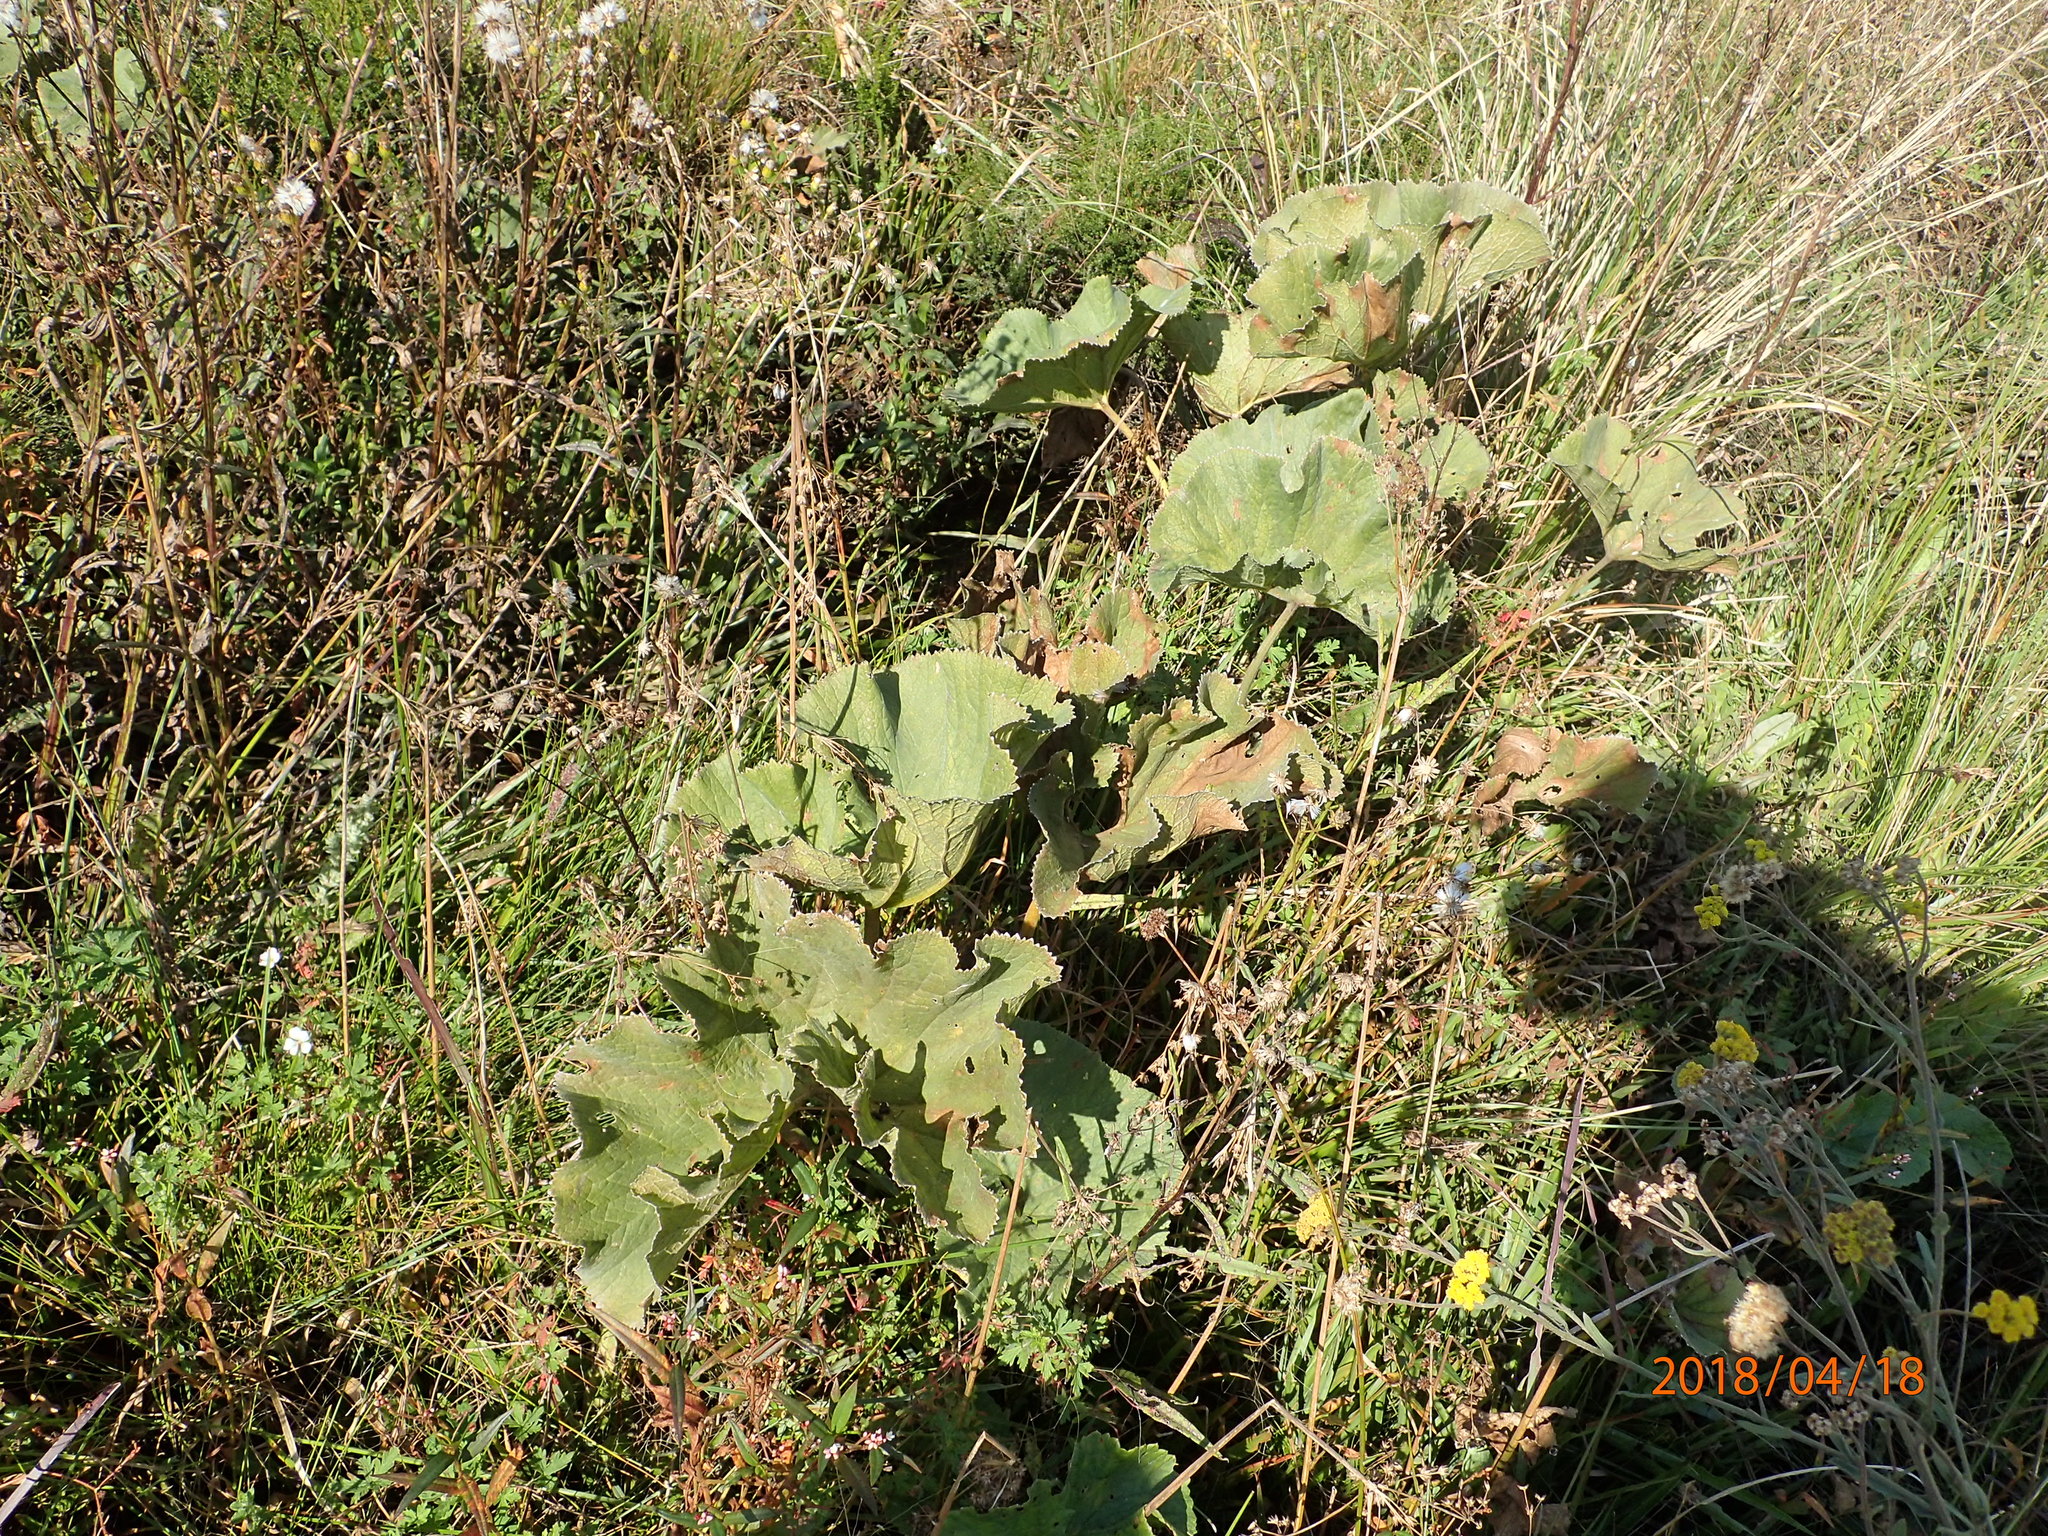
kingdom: Plantae
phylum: Tracheophyta
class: Magnoliopsida
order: Gunnerales
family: Gunneraceae
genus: Gunnera
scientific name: Gunnera perpensa
